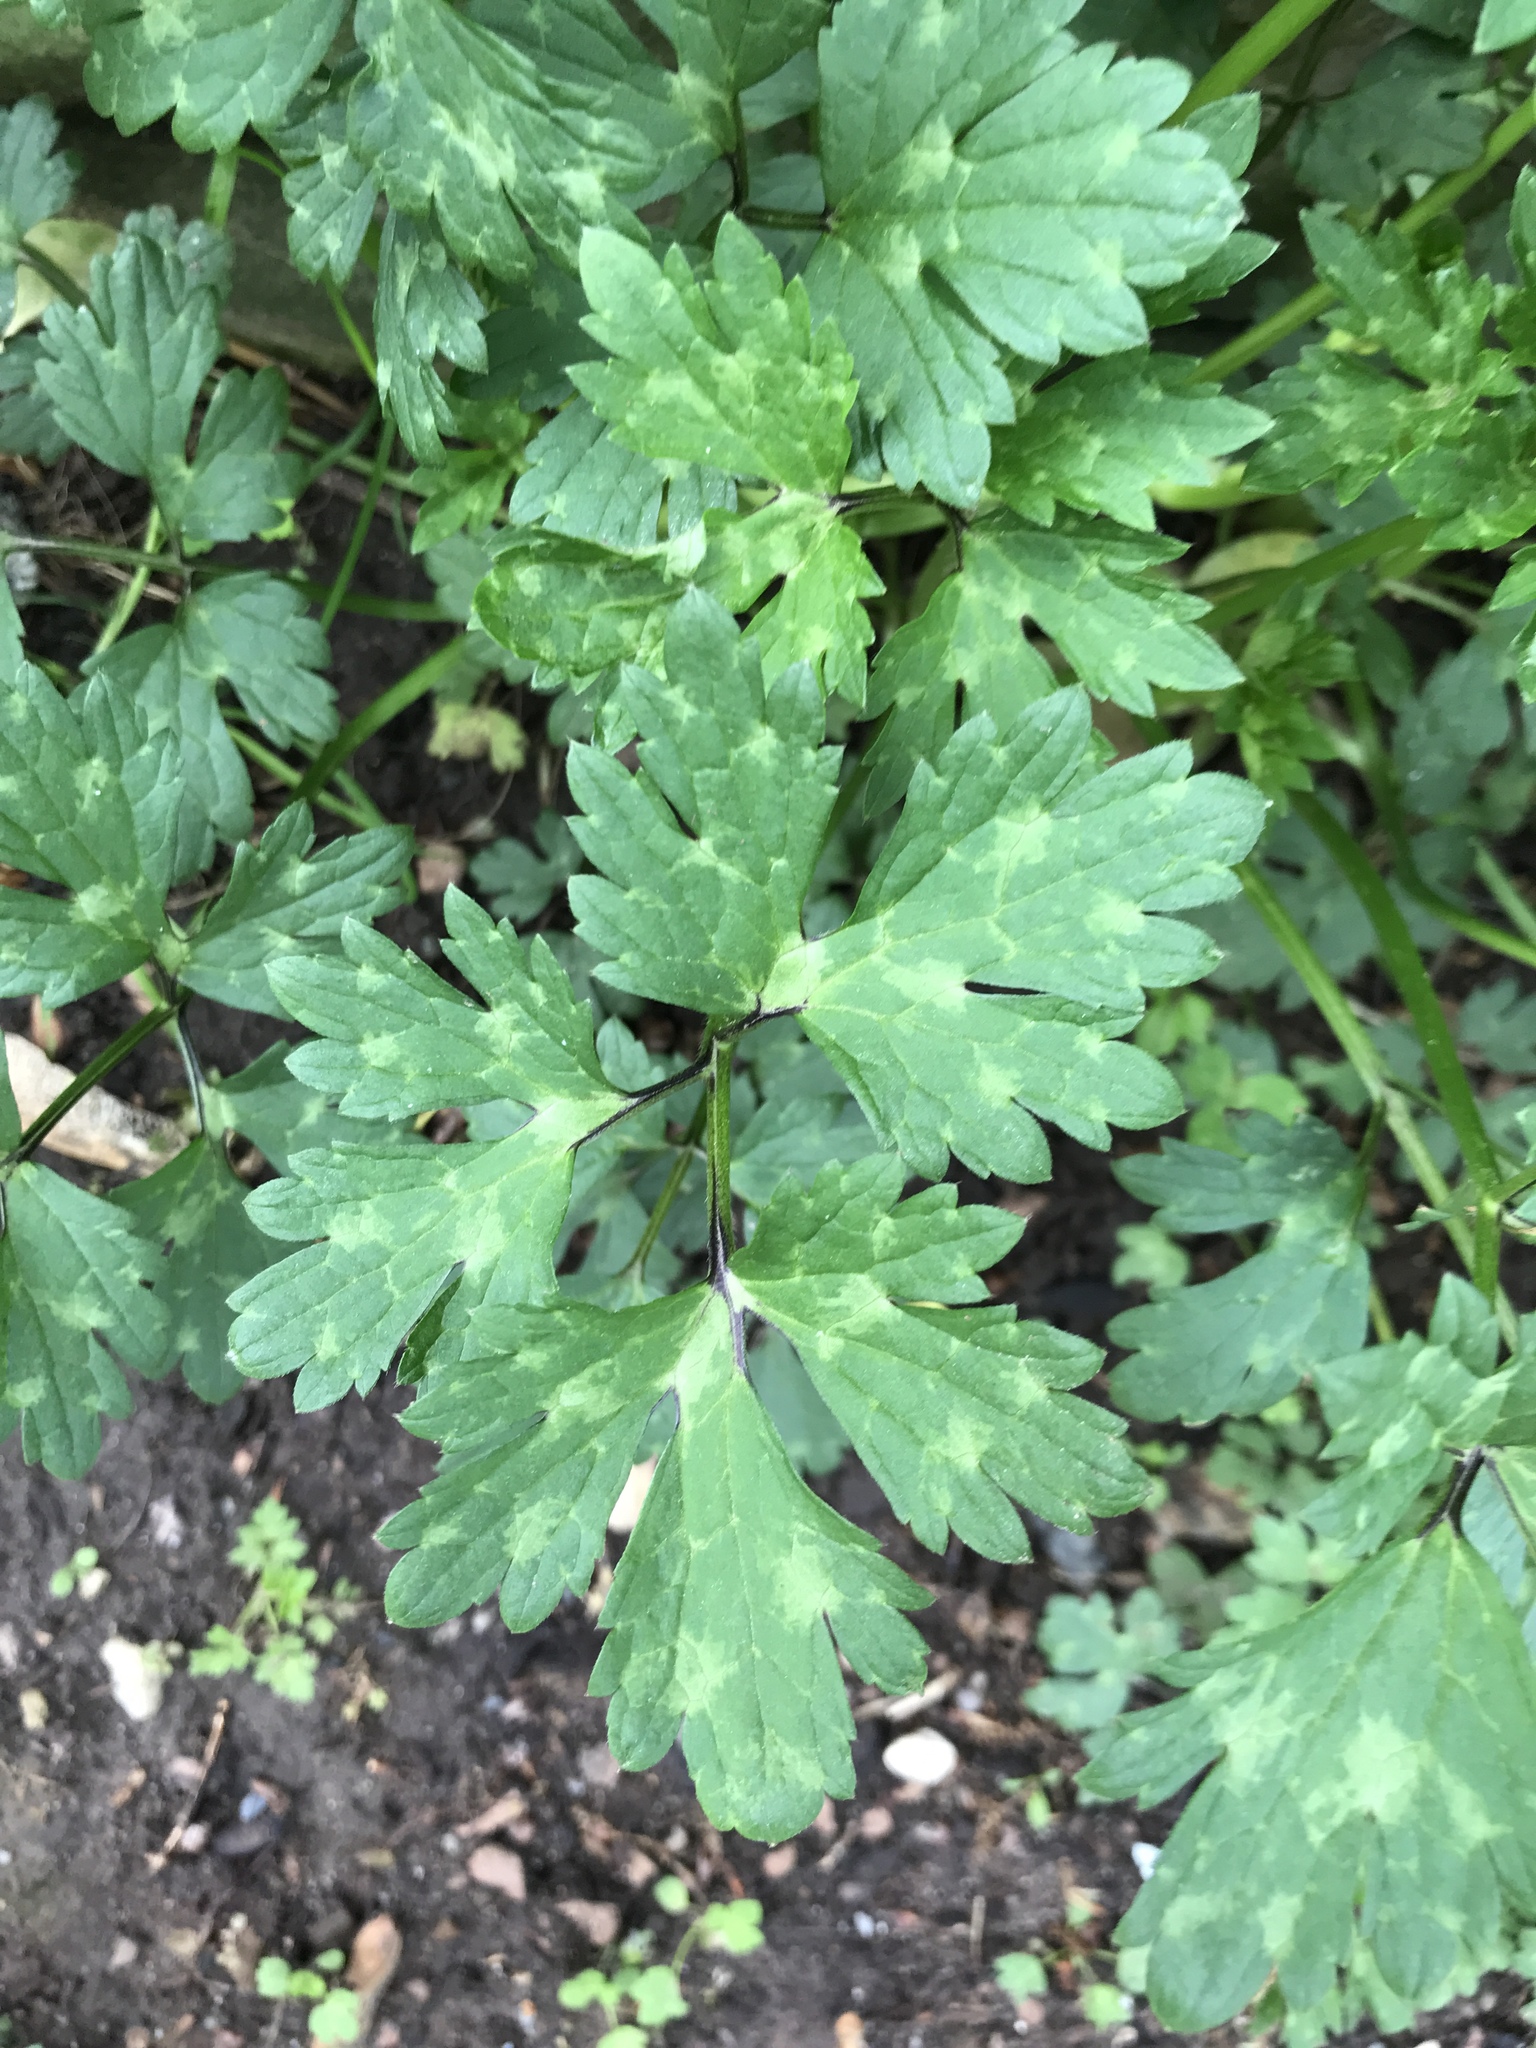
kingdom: Plantae
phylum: Tracheophyta
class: Magnoliopsida
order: Ranunculales
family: Ranunculaceae
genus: Ranunculus
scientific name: Ranunculus repens
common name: Creeping buttercup
